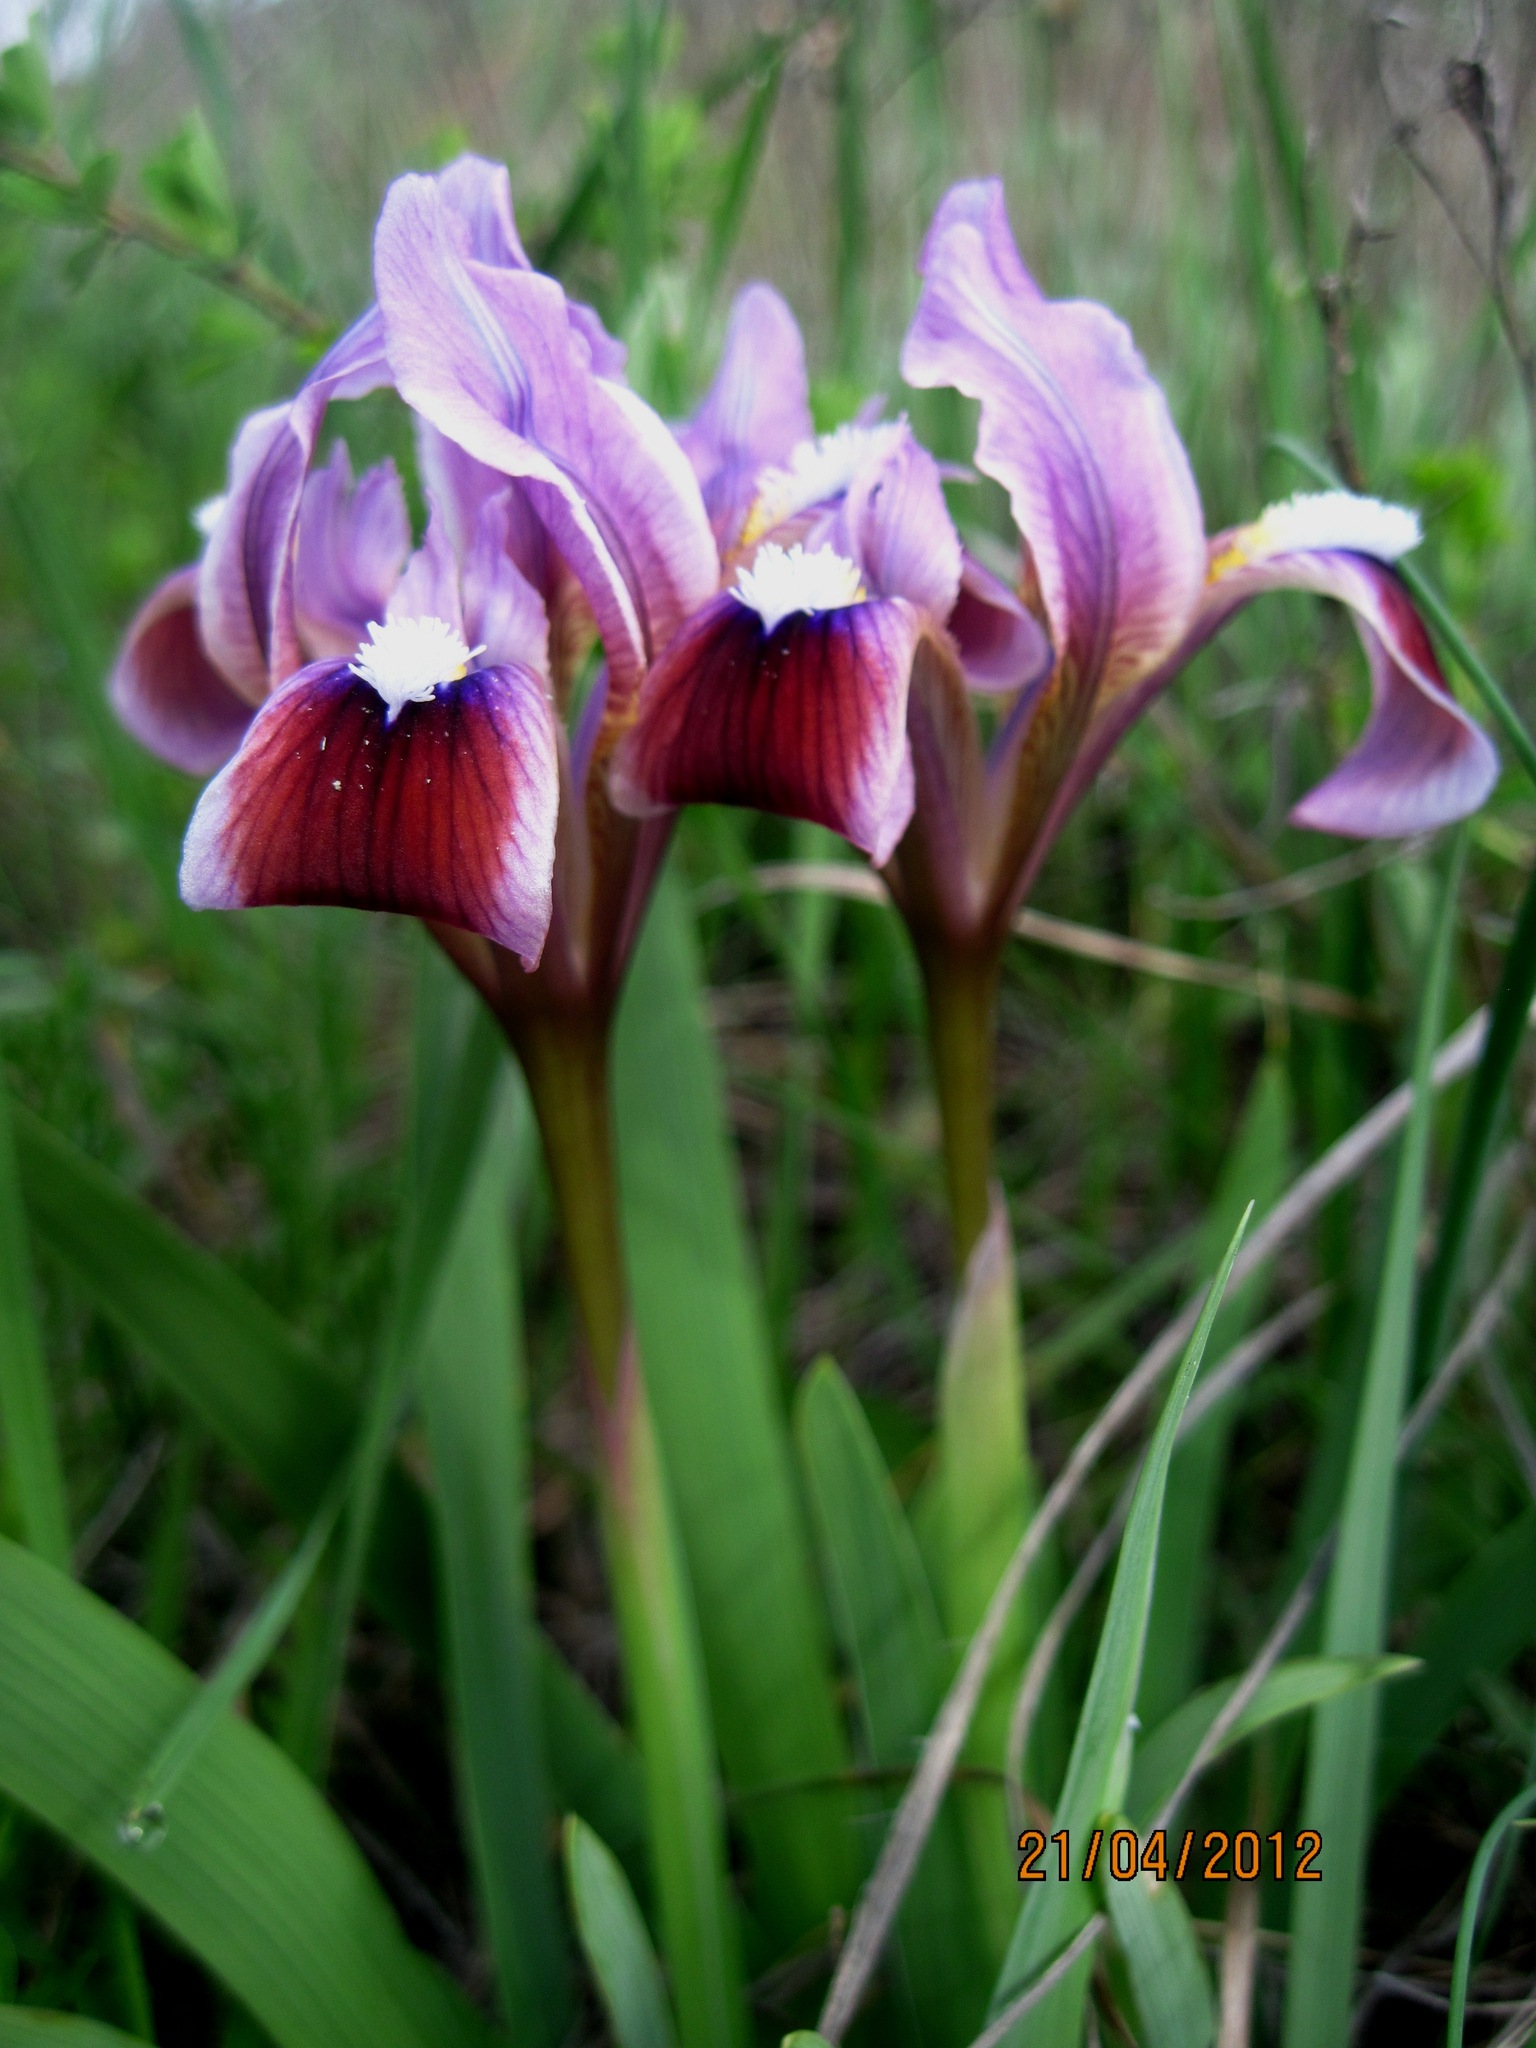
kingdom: Plantae
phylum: Tracheophyta
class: Liliopsida
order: Asparagales
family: Iridaceae
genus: Iris
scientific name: Iris pumila
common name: Dwarf iris
